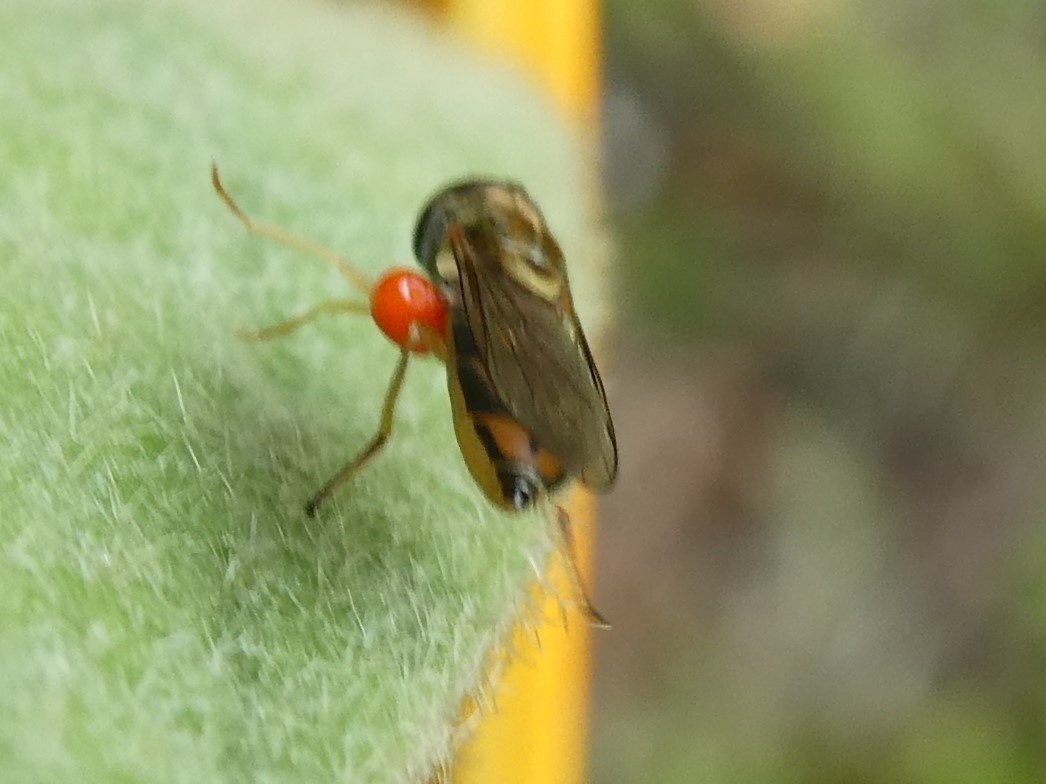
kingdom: Animalia
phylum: Arthropoda
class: Insecta
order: Diptera
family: Syrphidae
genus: Toxomerus
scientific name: Toxomerus marginatus
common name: Syrphid fly
